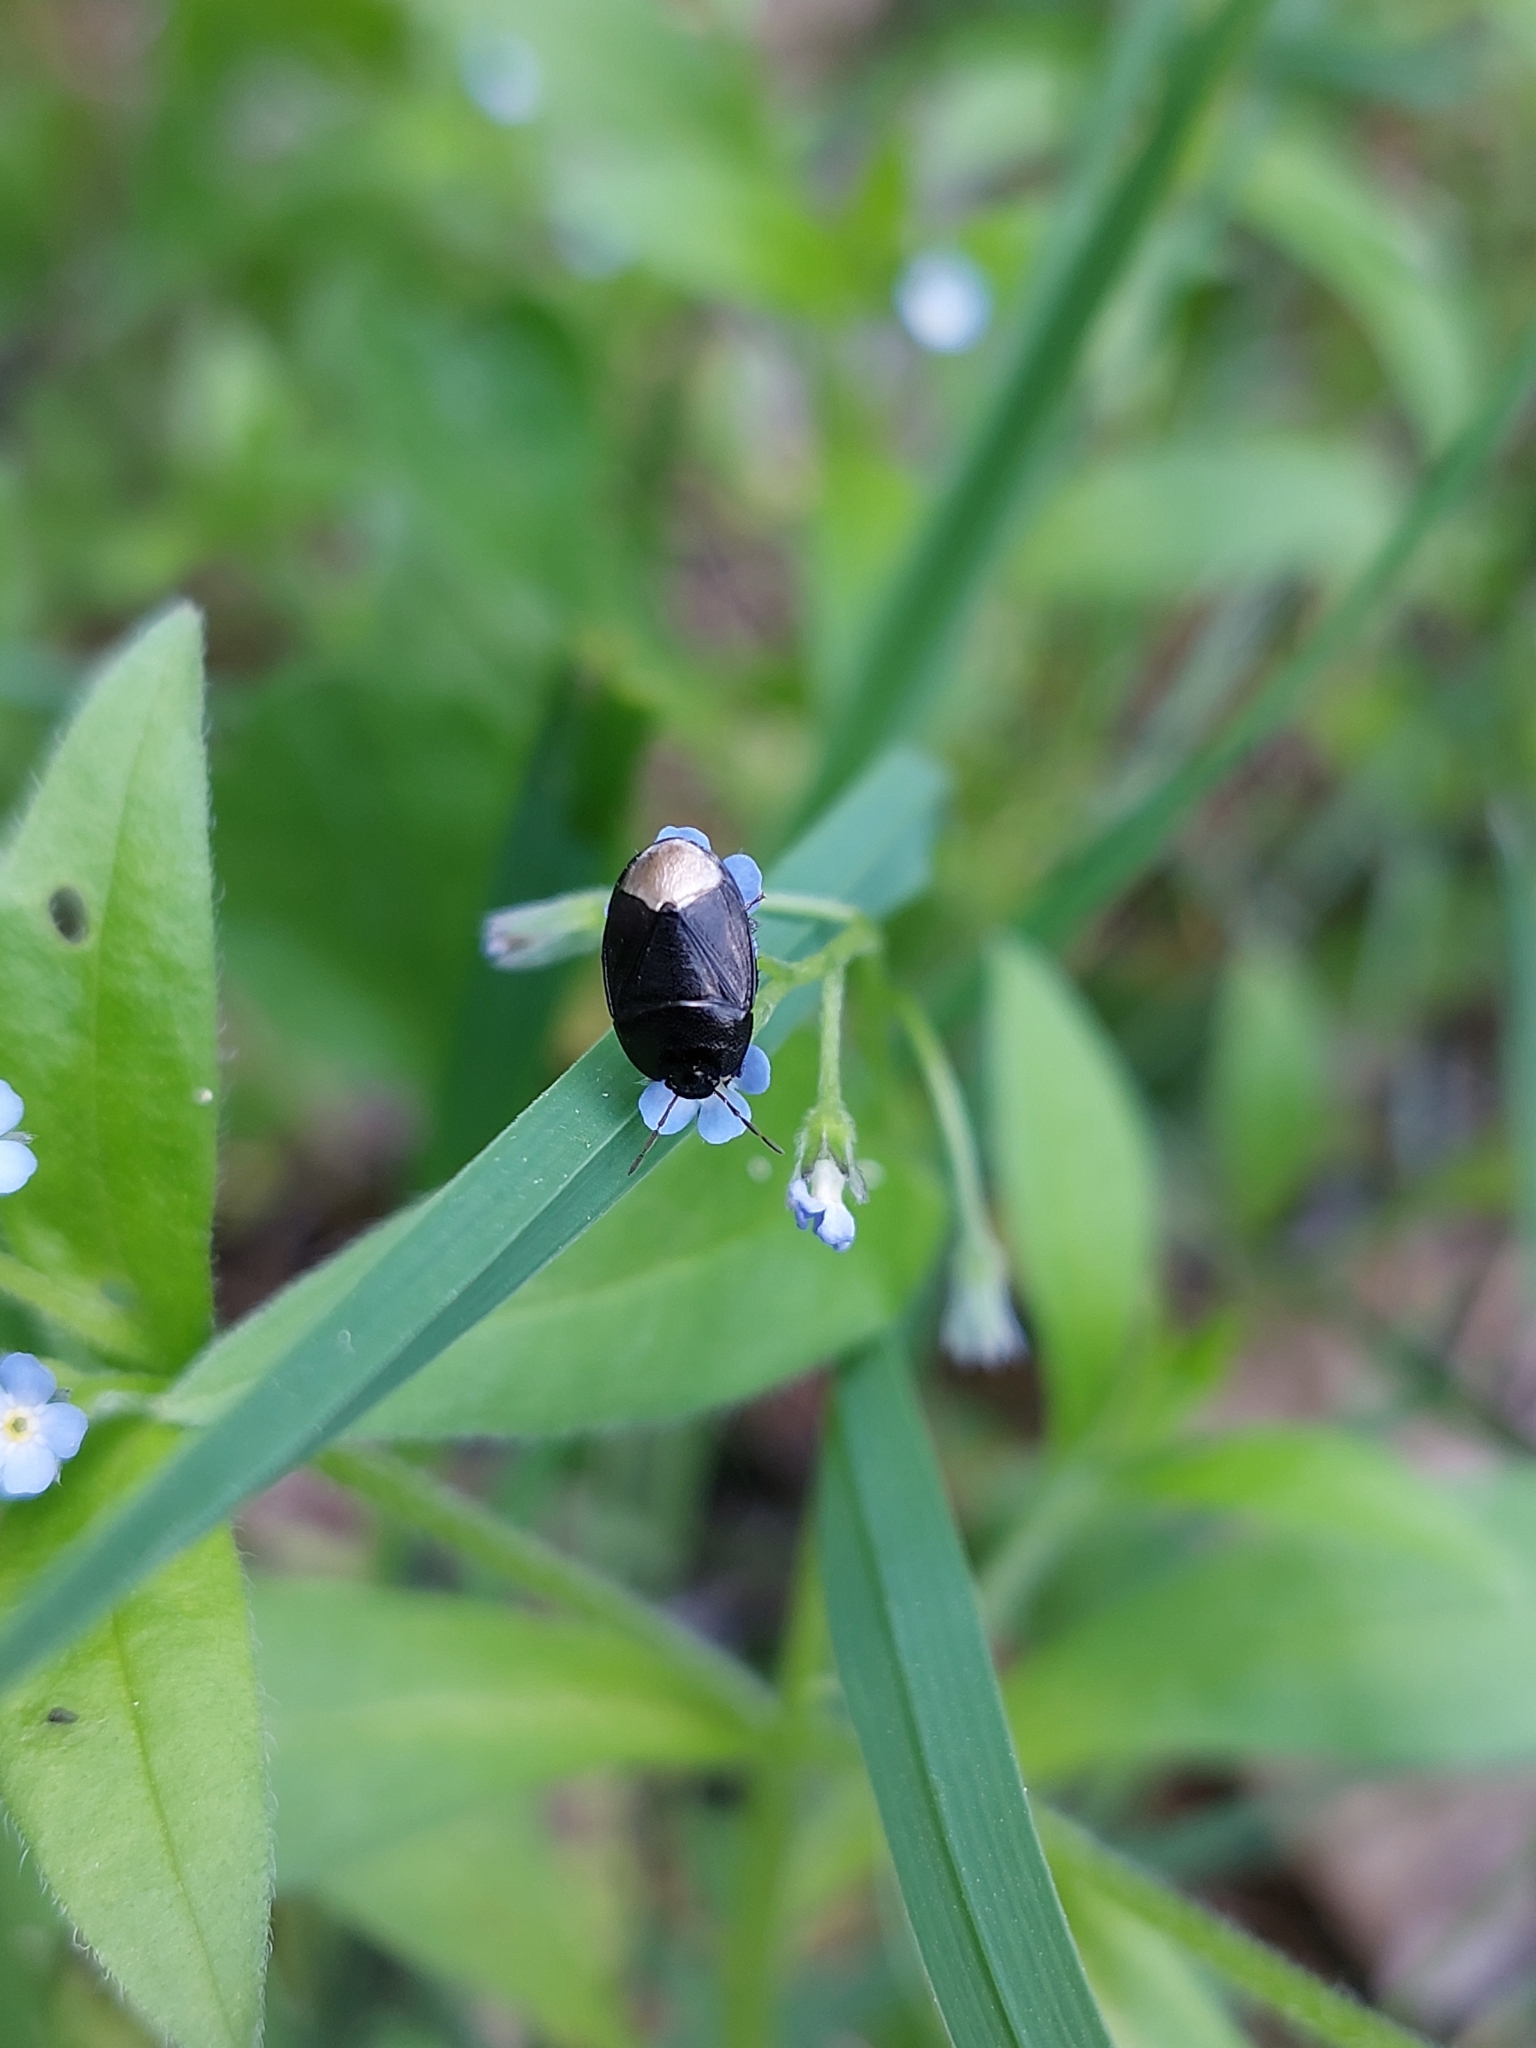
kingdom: Animalia
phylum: Arthropoda
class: Insecta
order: Hemiptera
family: Cydnidae
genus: Sehirus
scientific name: Sehirus morio
